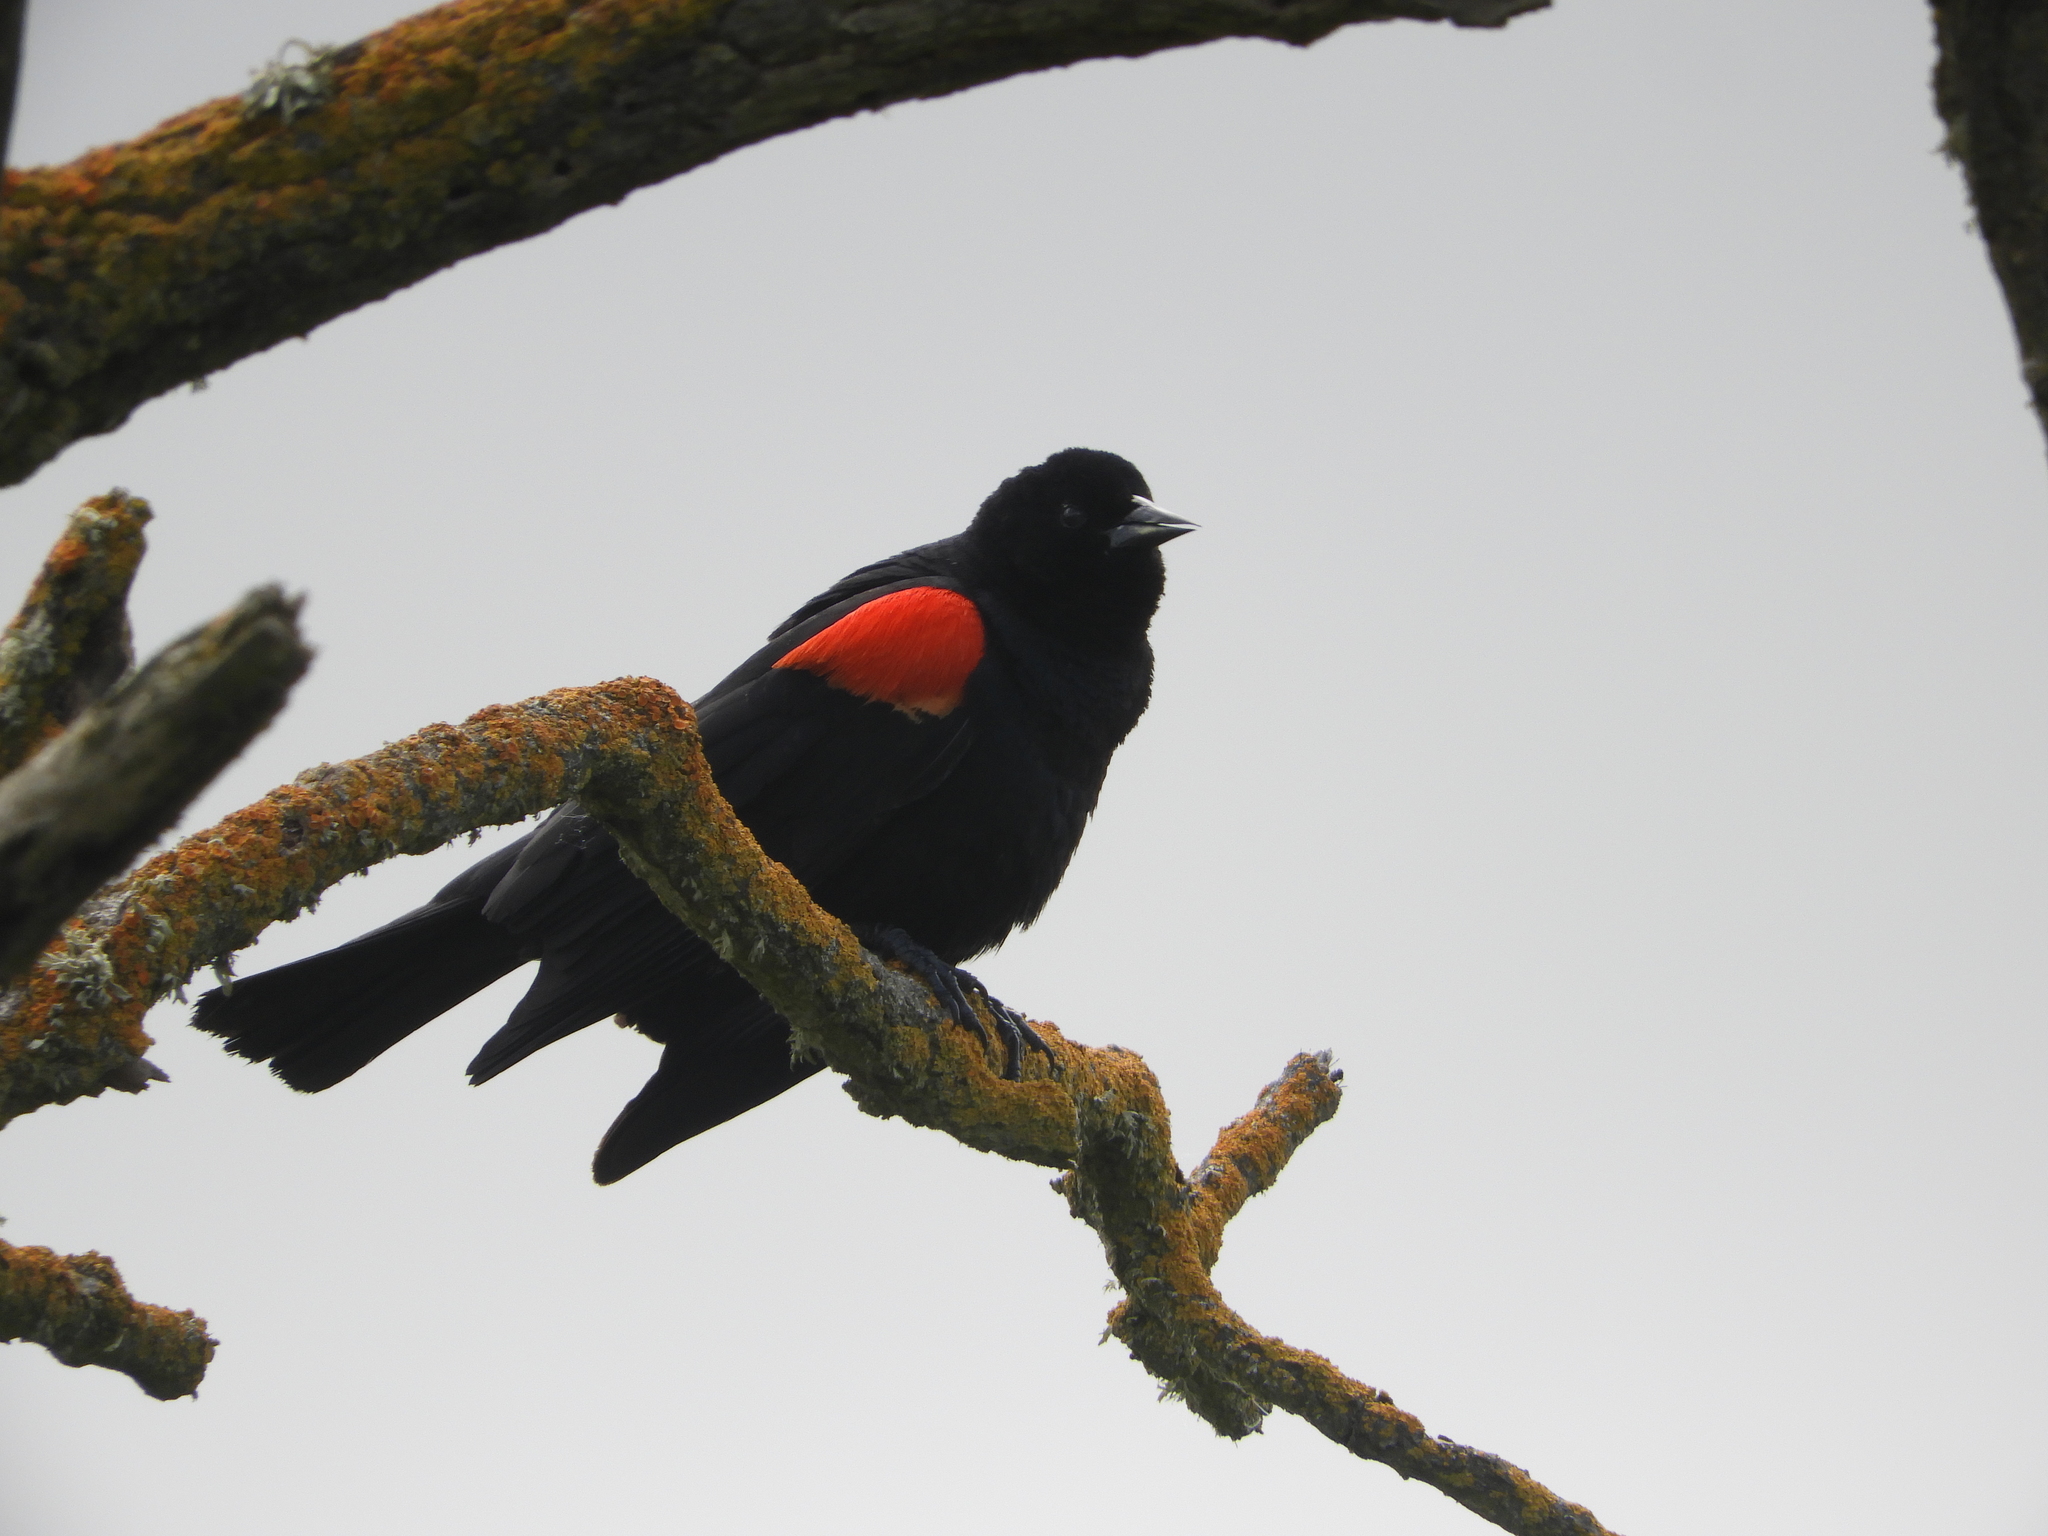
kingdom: Animalia
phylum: Chordata
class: Aves
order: Passeriformes
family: Icteridae
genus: Agelaius
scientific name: Agelaius phoeniceus
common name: Red-winged blackbird
